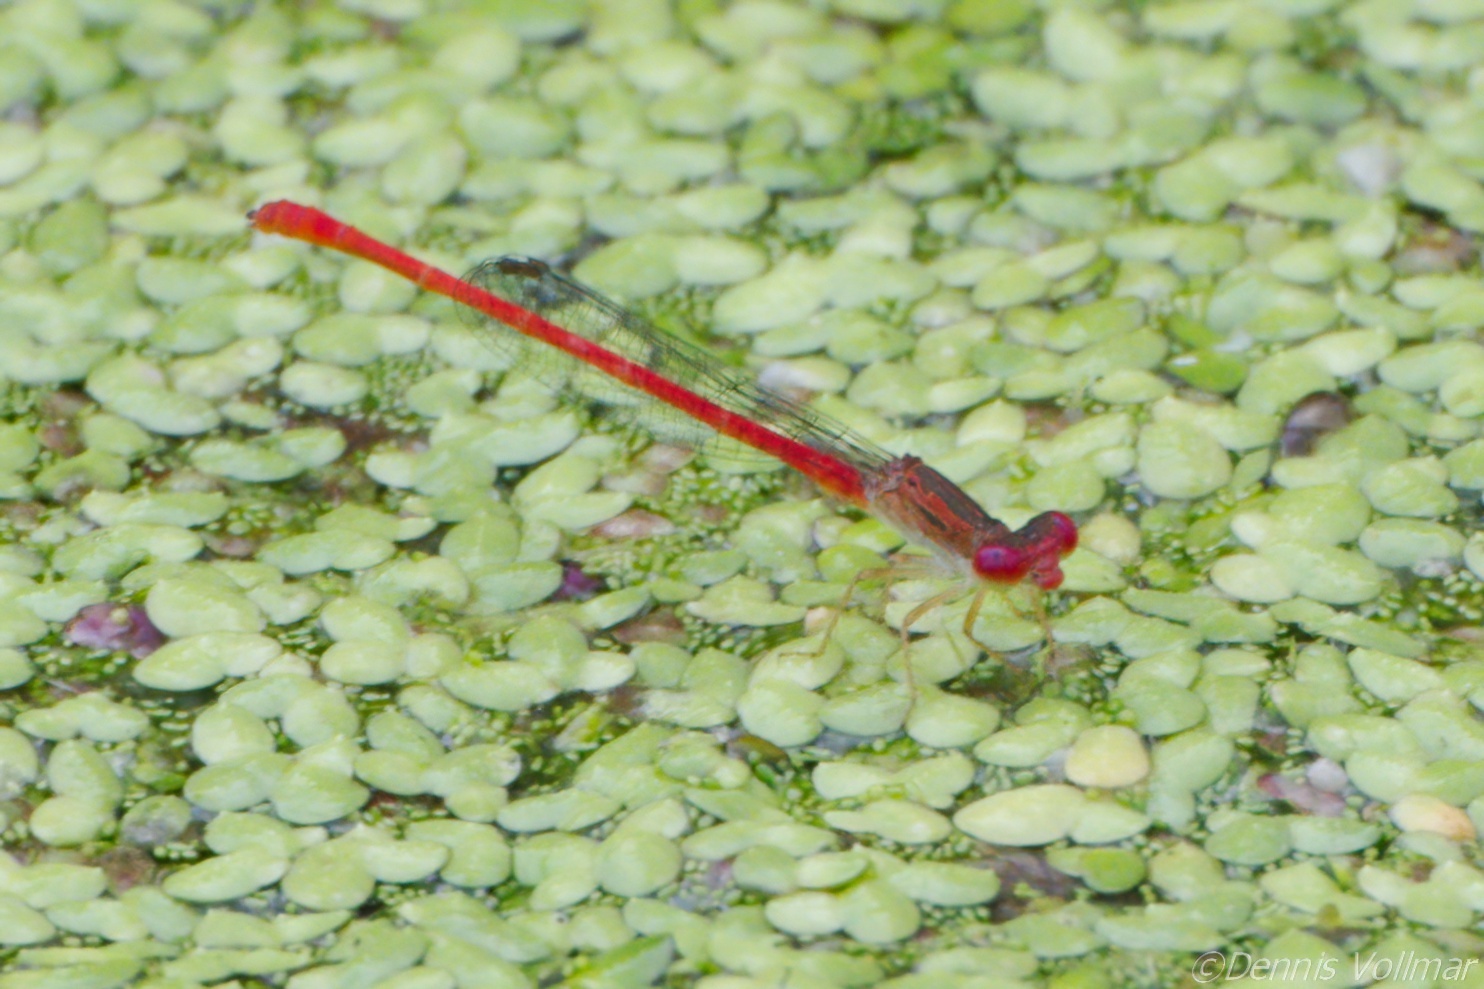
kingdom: Animalia
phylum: Arthropoda
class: Insecta
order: Odonata
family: Coenagrionidae
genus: Telebasis
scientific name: Telebasis byersi
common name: Duckweed firetail
